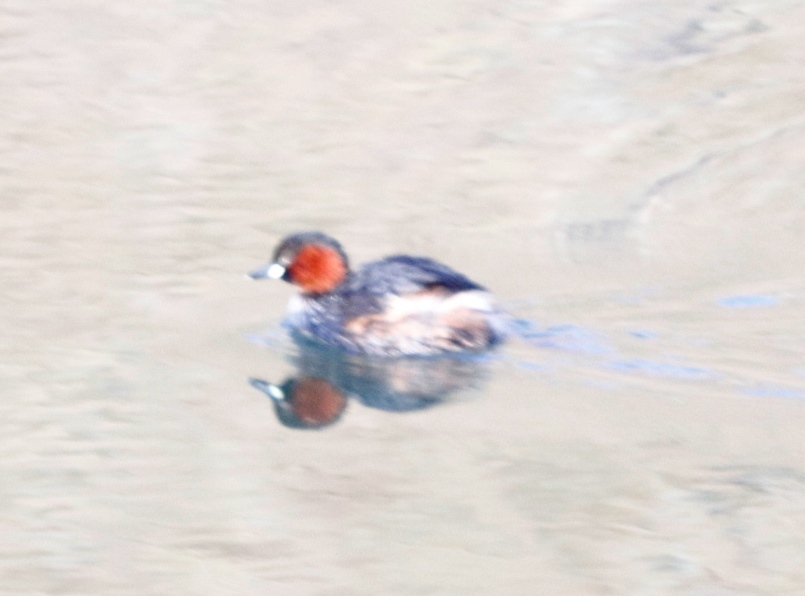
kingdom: Animalia
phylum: Chordata
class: Aves
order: Podicipediformes
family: Podicipedidae
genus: Tachybaptus
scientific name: Tachybaptus ruficollis
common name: Little grebe
